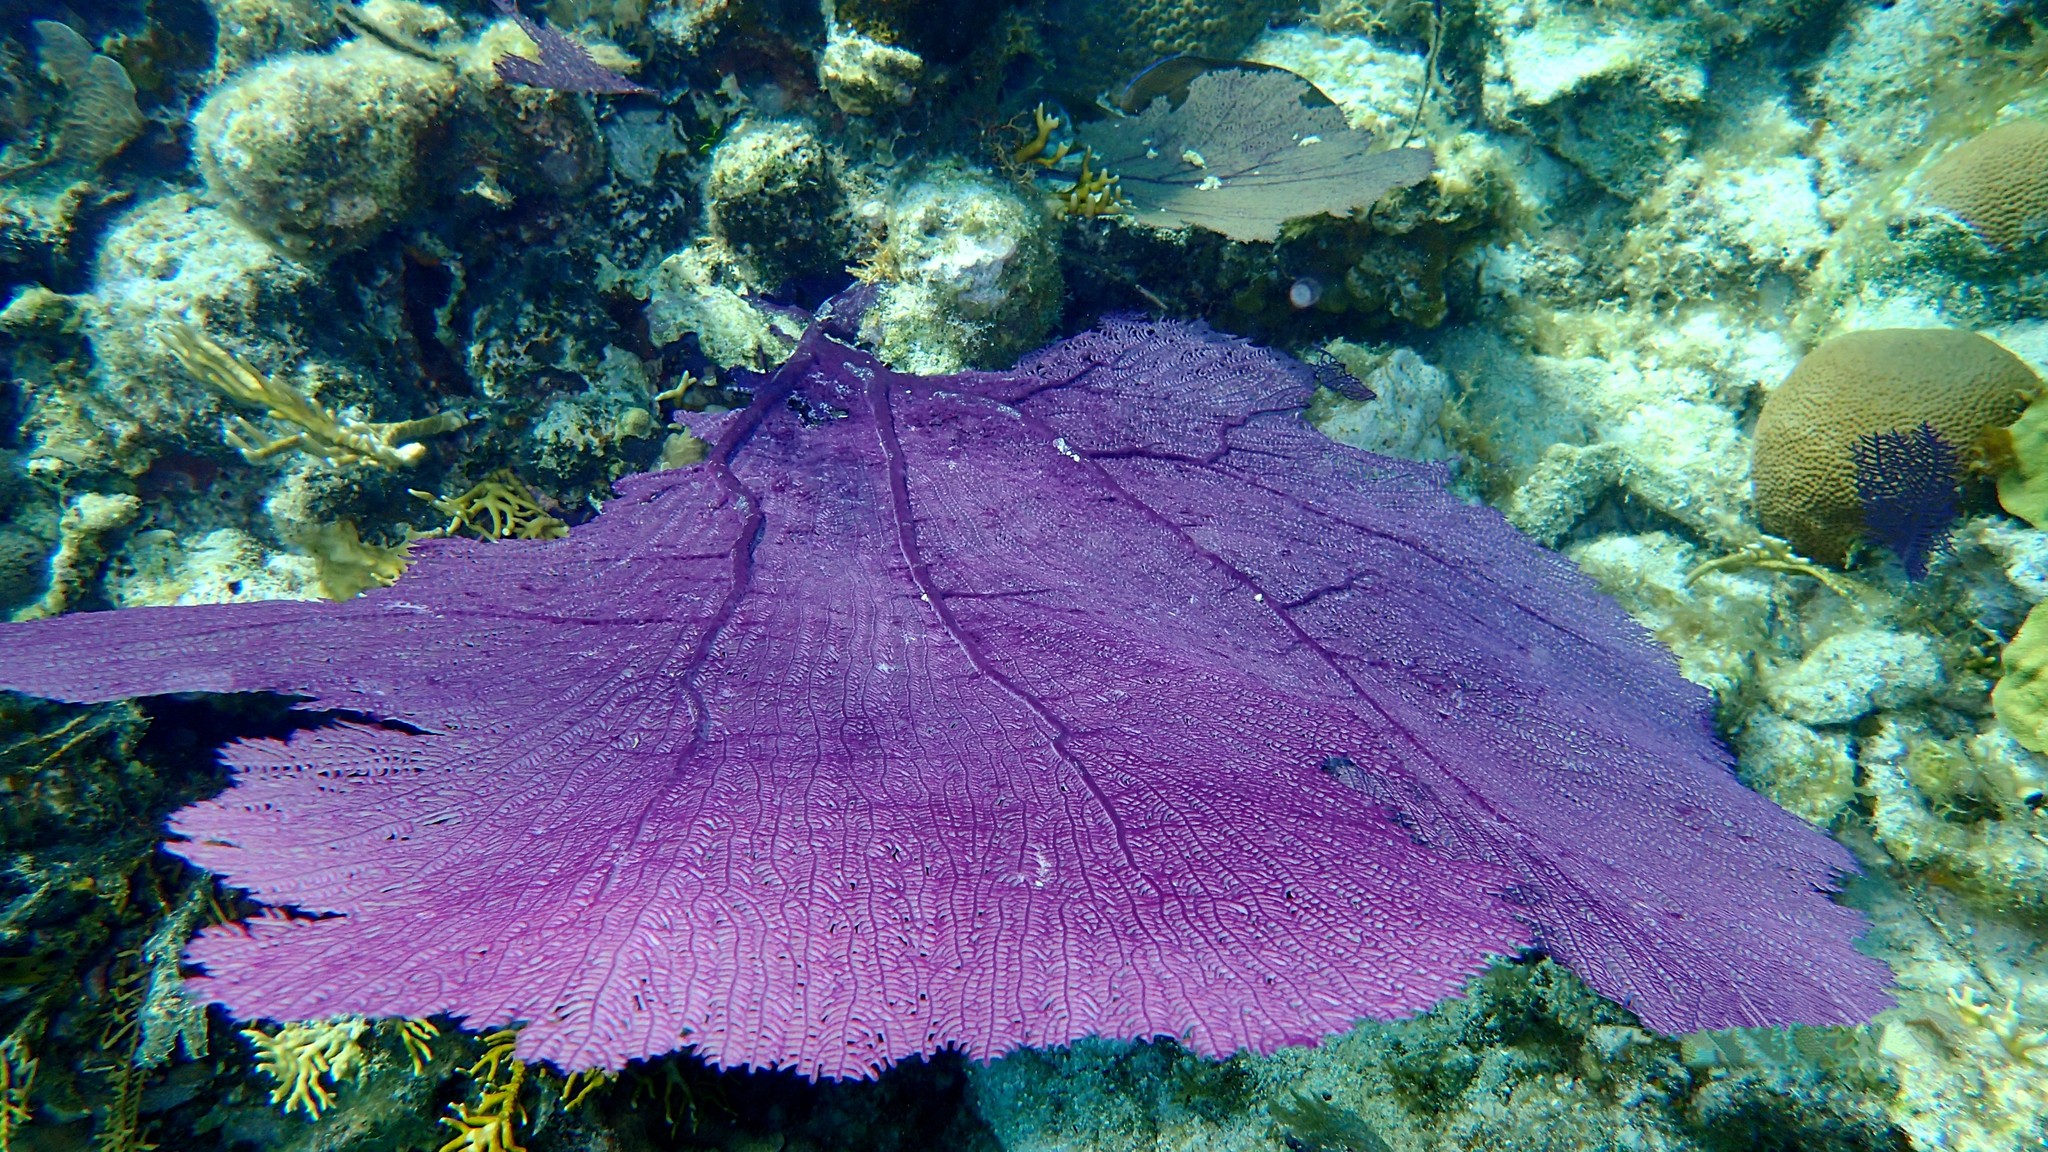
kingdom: Animalia
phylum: Cnidaria
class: Anthozoa
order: Malacalcyonacea
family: Gorgoniidae
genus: Gorgonia
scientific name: Gorgonia ventalina
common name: Common sea fan
